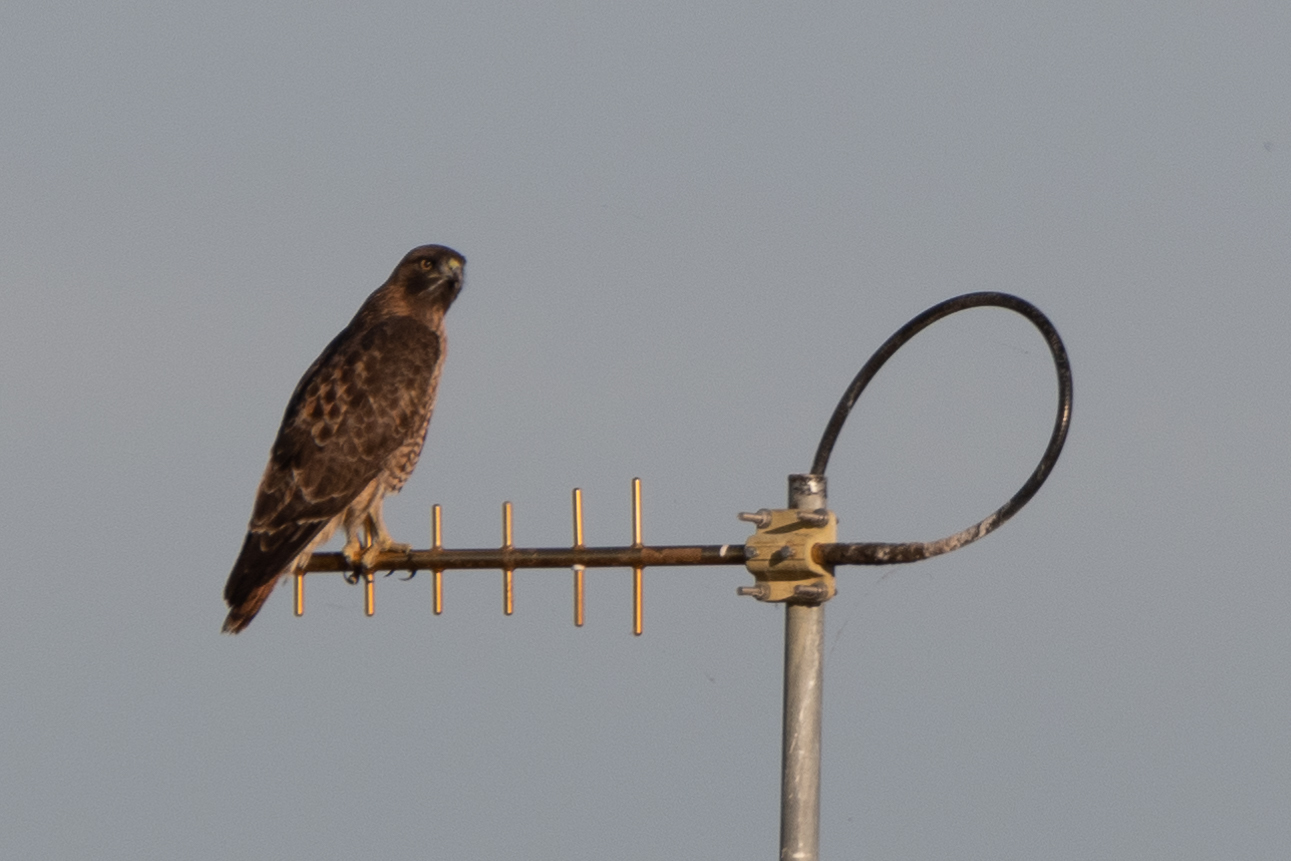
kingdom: Animalia
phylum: Chordata
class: Aves
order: Accipitriformes
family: Accipitridae
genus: Buteo
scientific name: Buteo jamaicensis
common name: Red-tailed hawk
